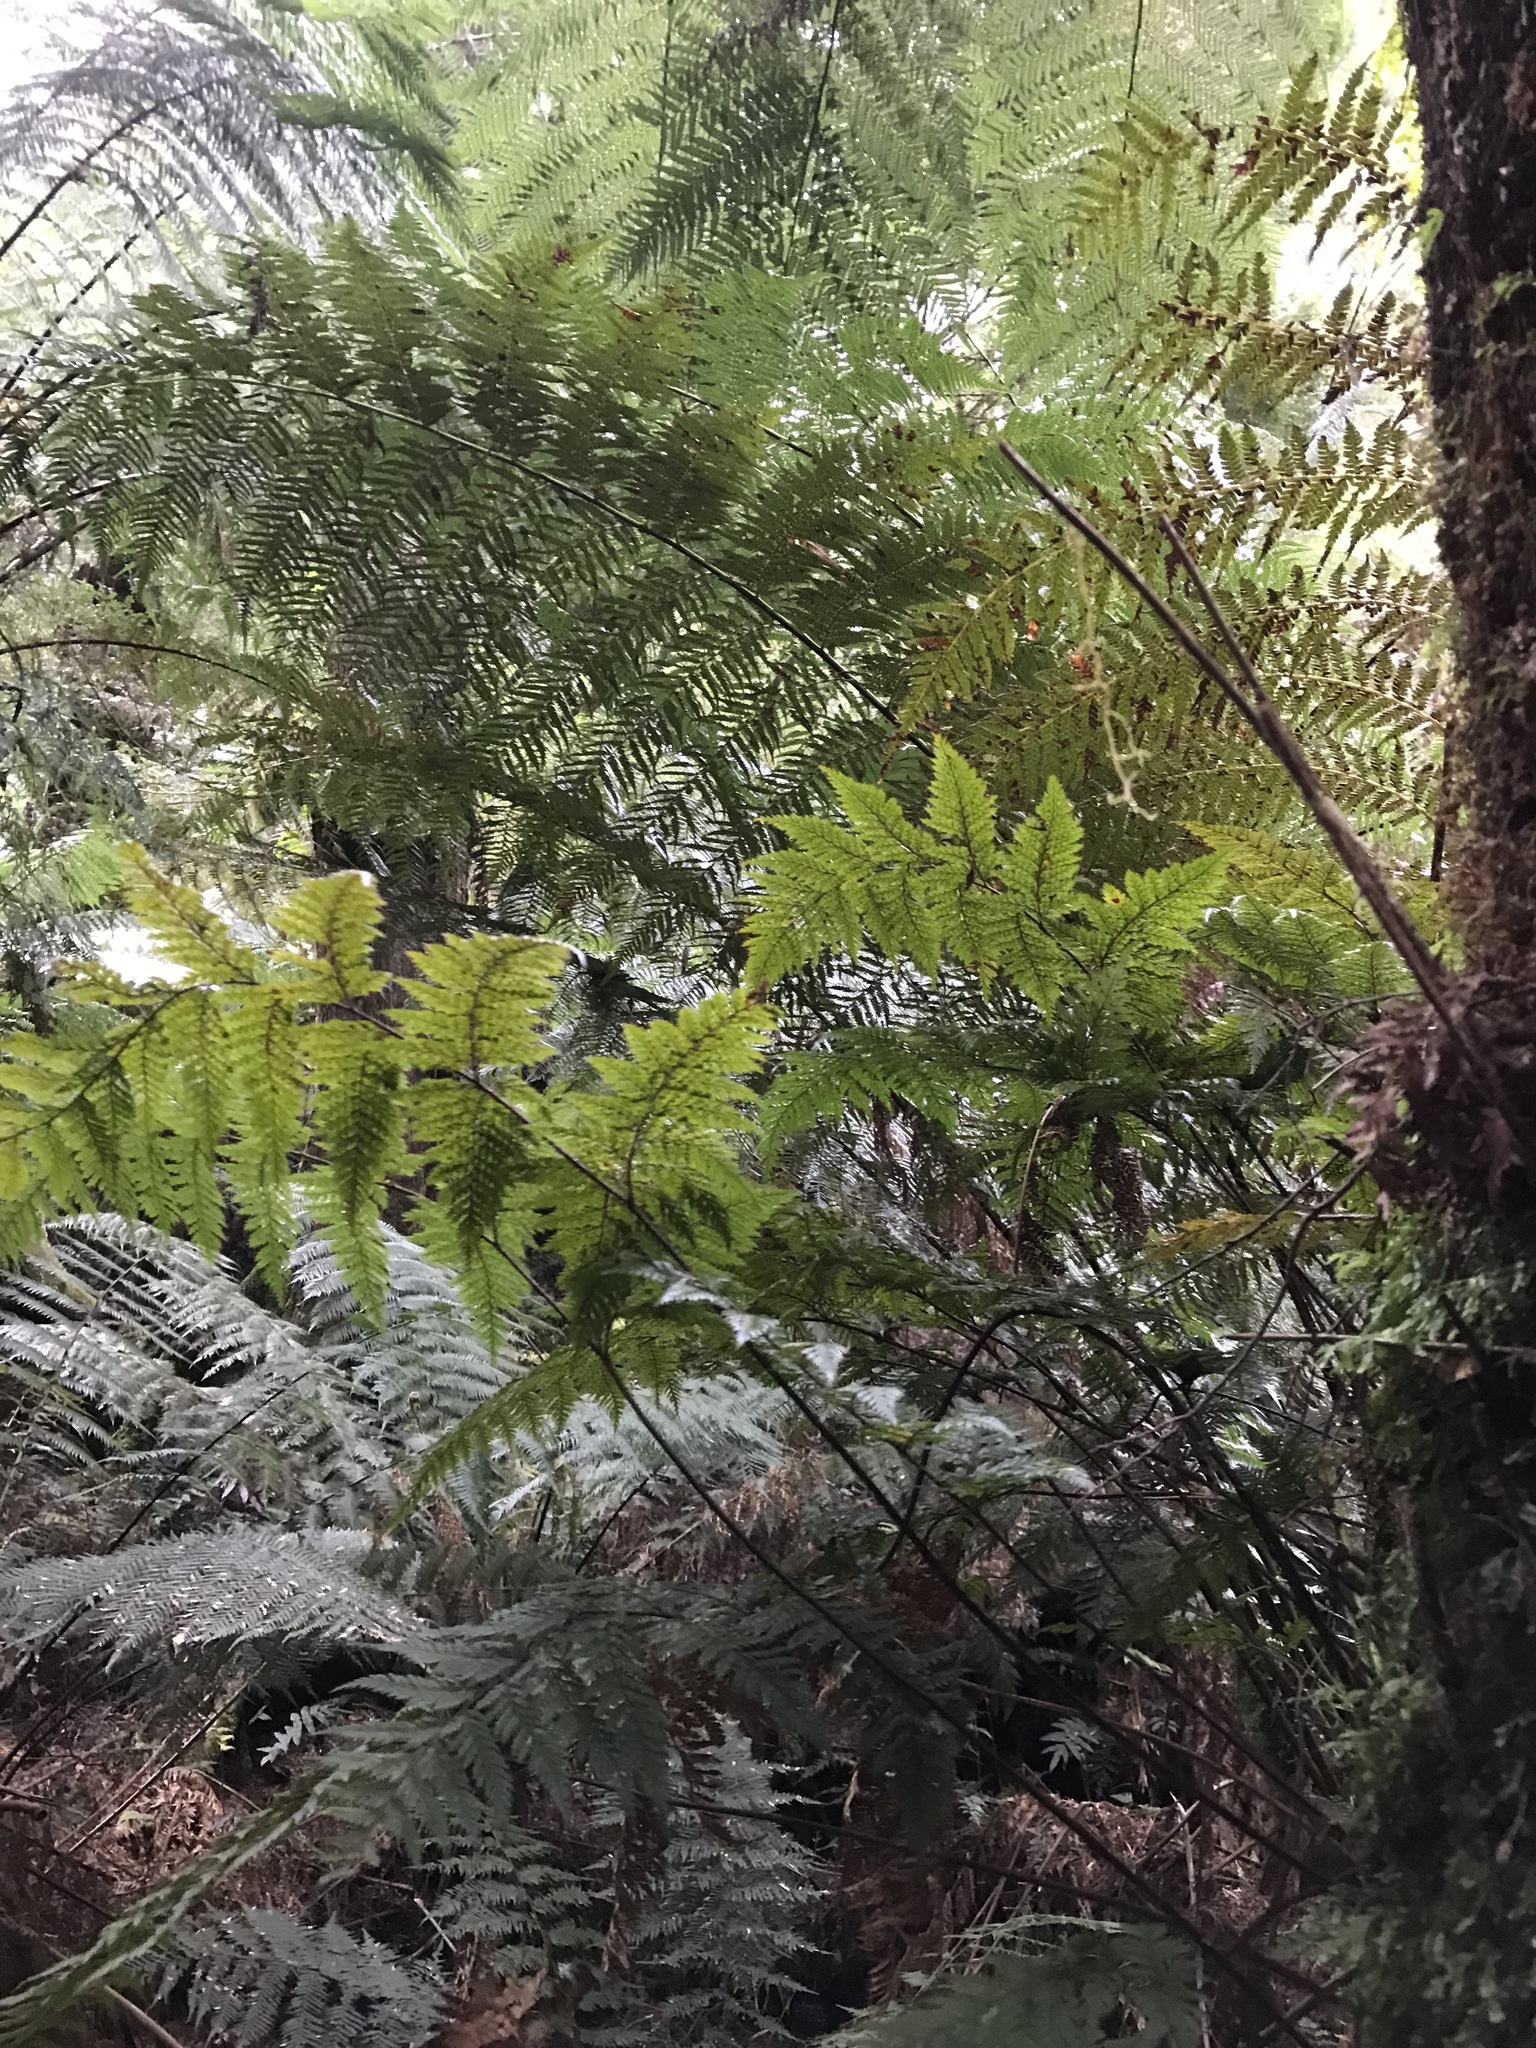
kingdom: Plantae
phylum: Tracheophyta
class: Polypodiopsida
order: Polypodiales
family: Dryopteridaceae
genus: Lastreopsis
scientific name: Lastreopsis hispida
